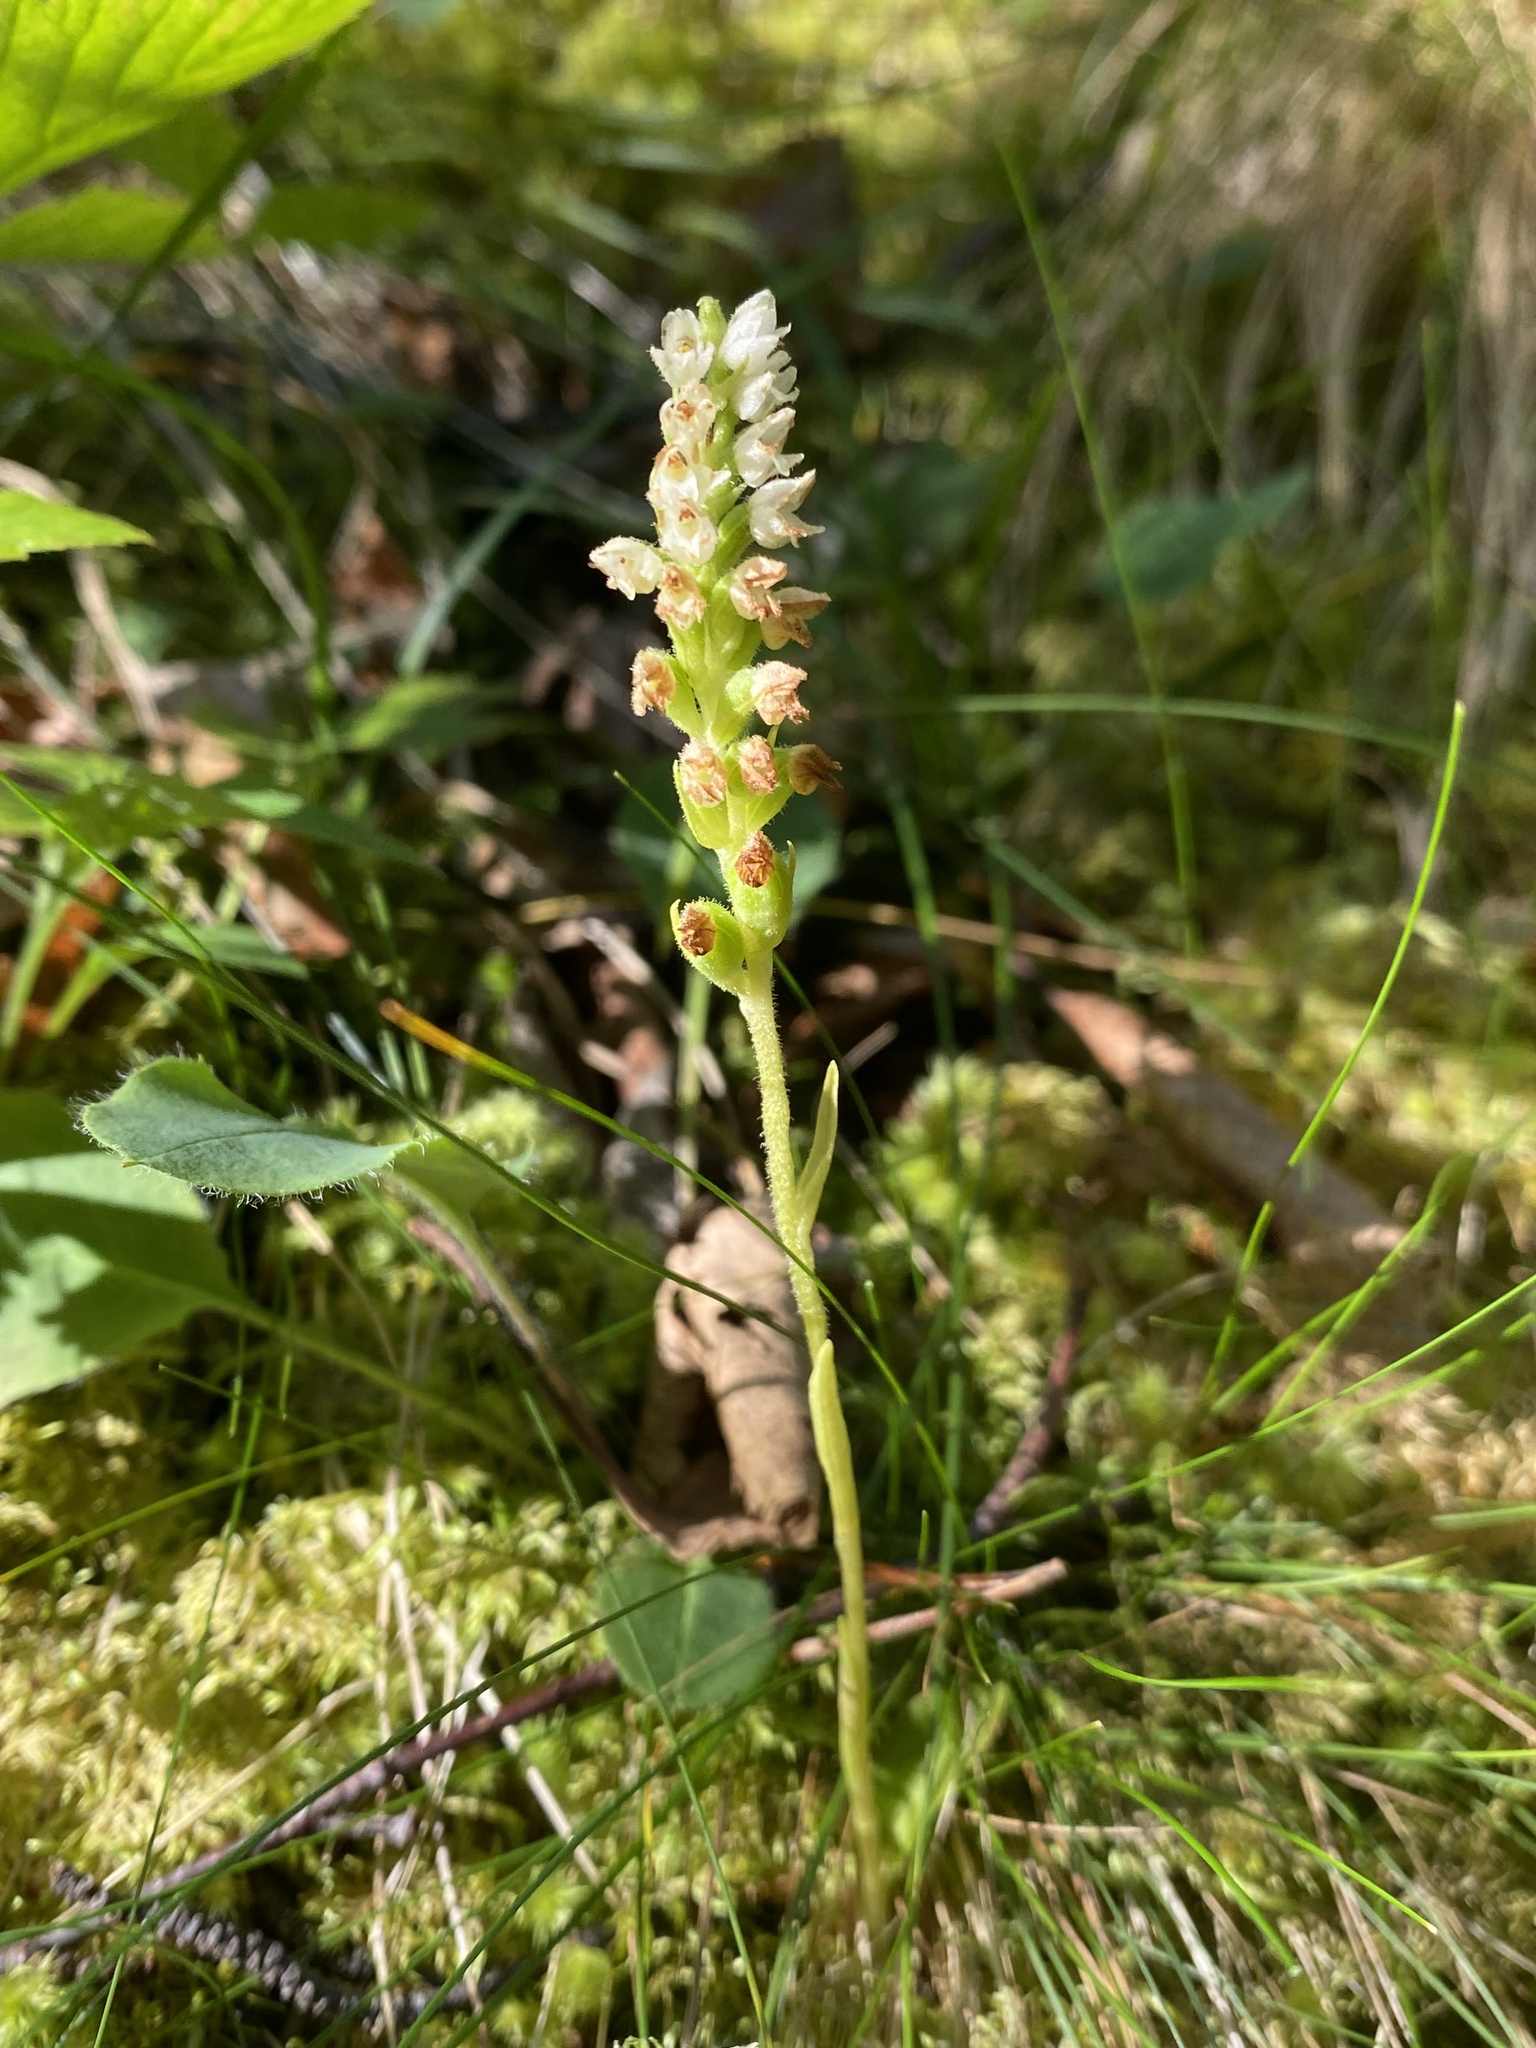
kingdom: Plantae
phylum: Tracheophyta
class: Liliopsida
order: Asparagales
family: Orchidaceae
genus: Goodyera
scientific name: Goodyera repens
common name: Creeping lady's-tresses
